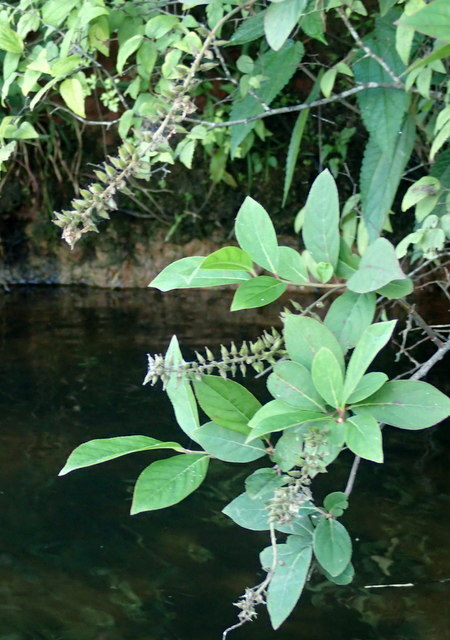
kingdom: Plantae
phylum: Tracheophyta
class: Magnoliopsida
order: Saxifragales
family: Iteaceae
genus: Itea
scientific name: Itea virginica
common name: Sweetspire
